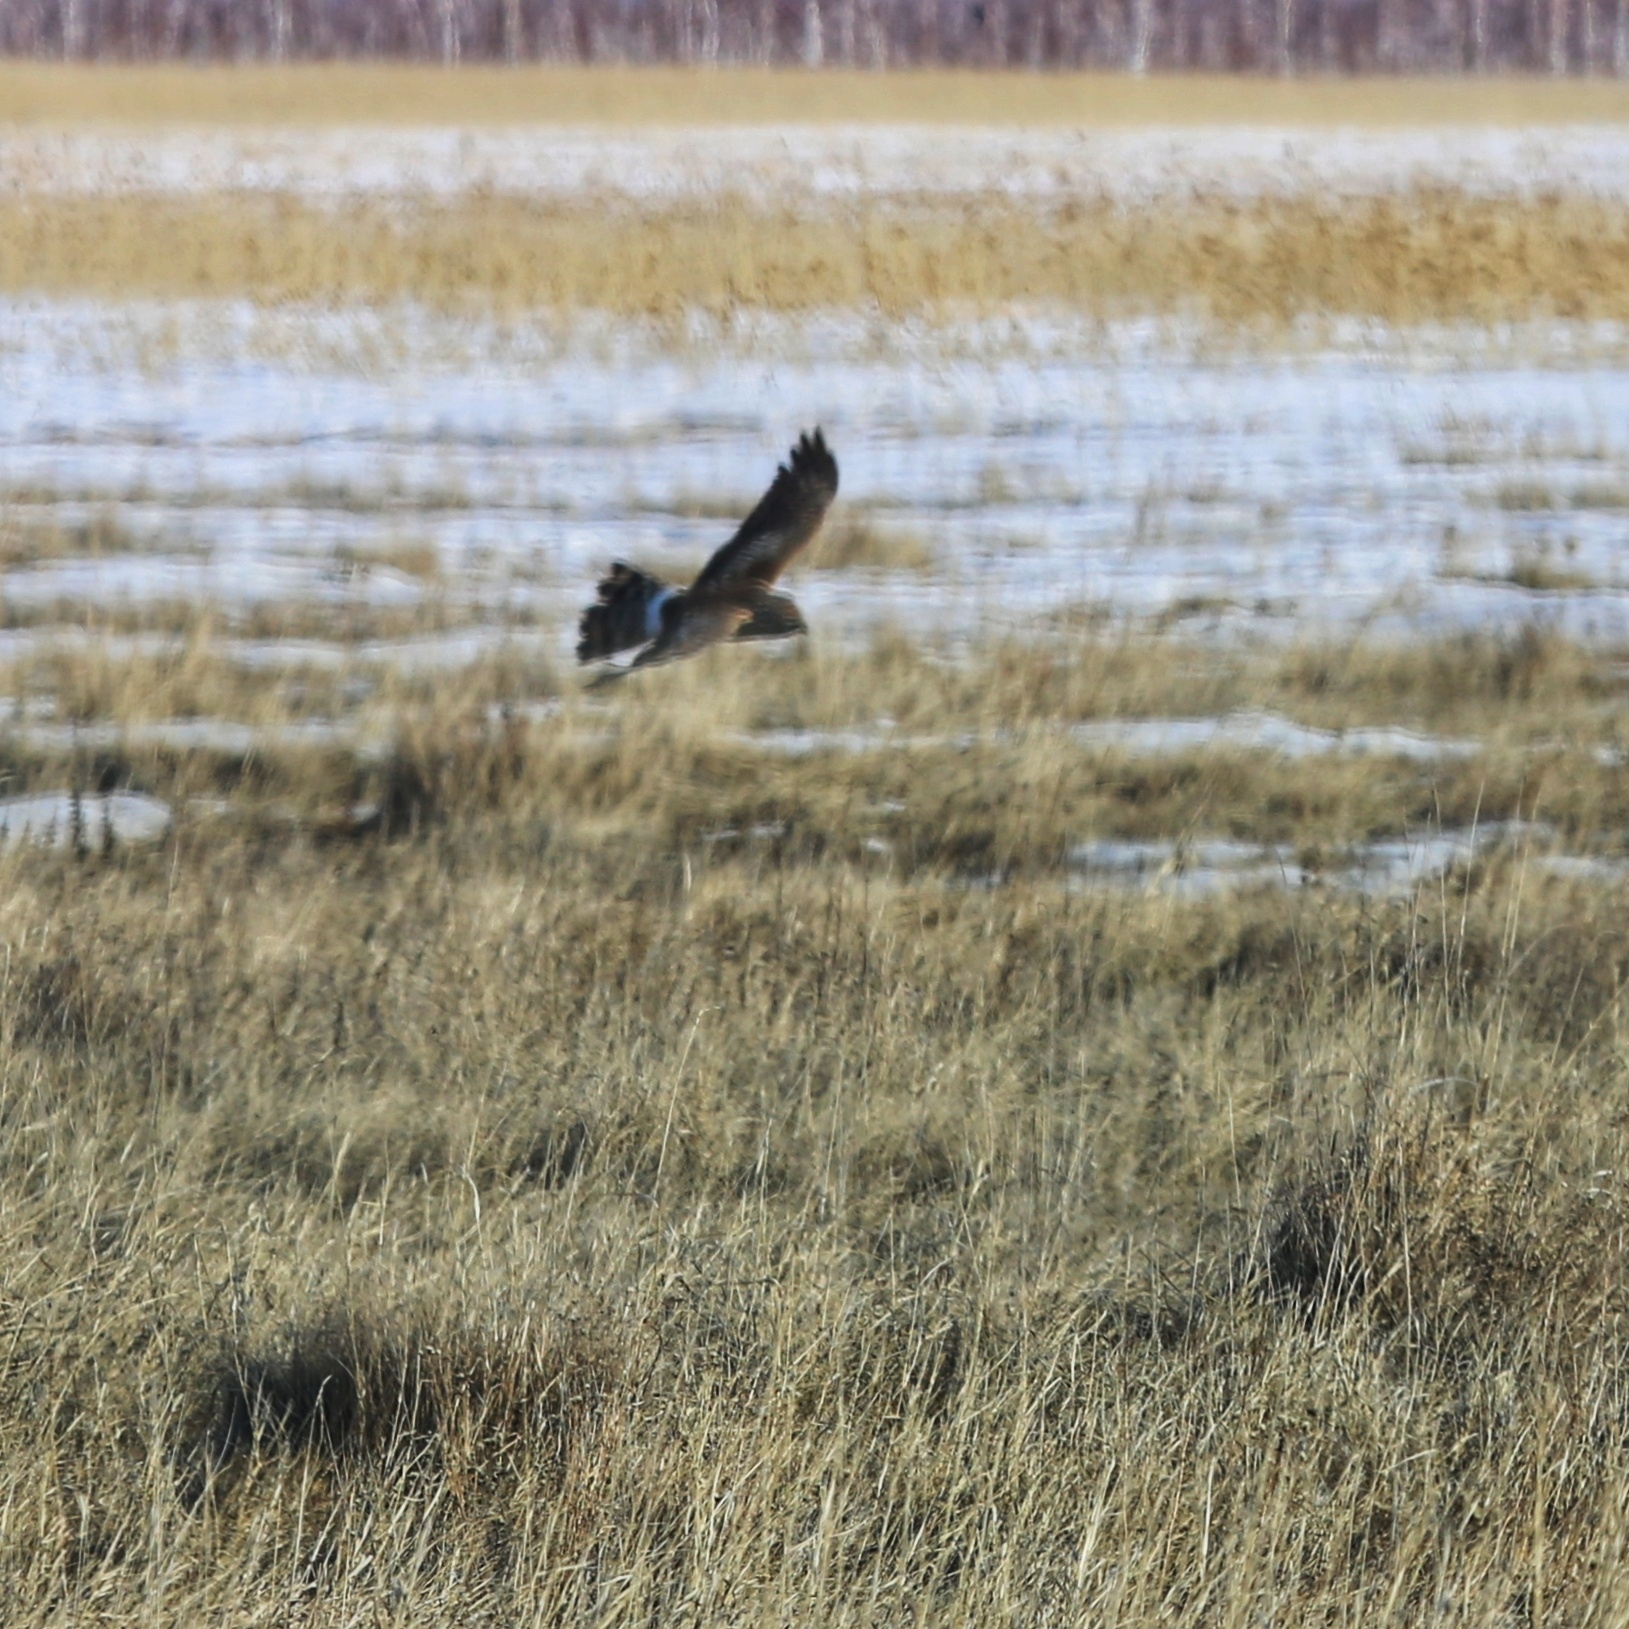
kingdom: Animalia
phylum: Chordata
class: Aves
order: Accipitriformes
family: Accipitridae
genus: Circus
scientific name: Circus cyaneus
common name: Hen harrier
